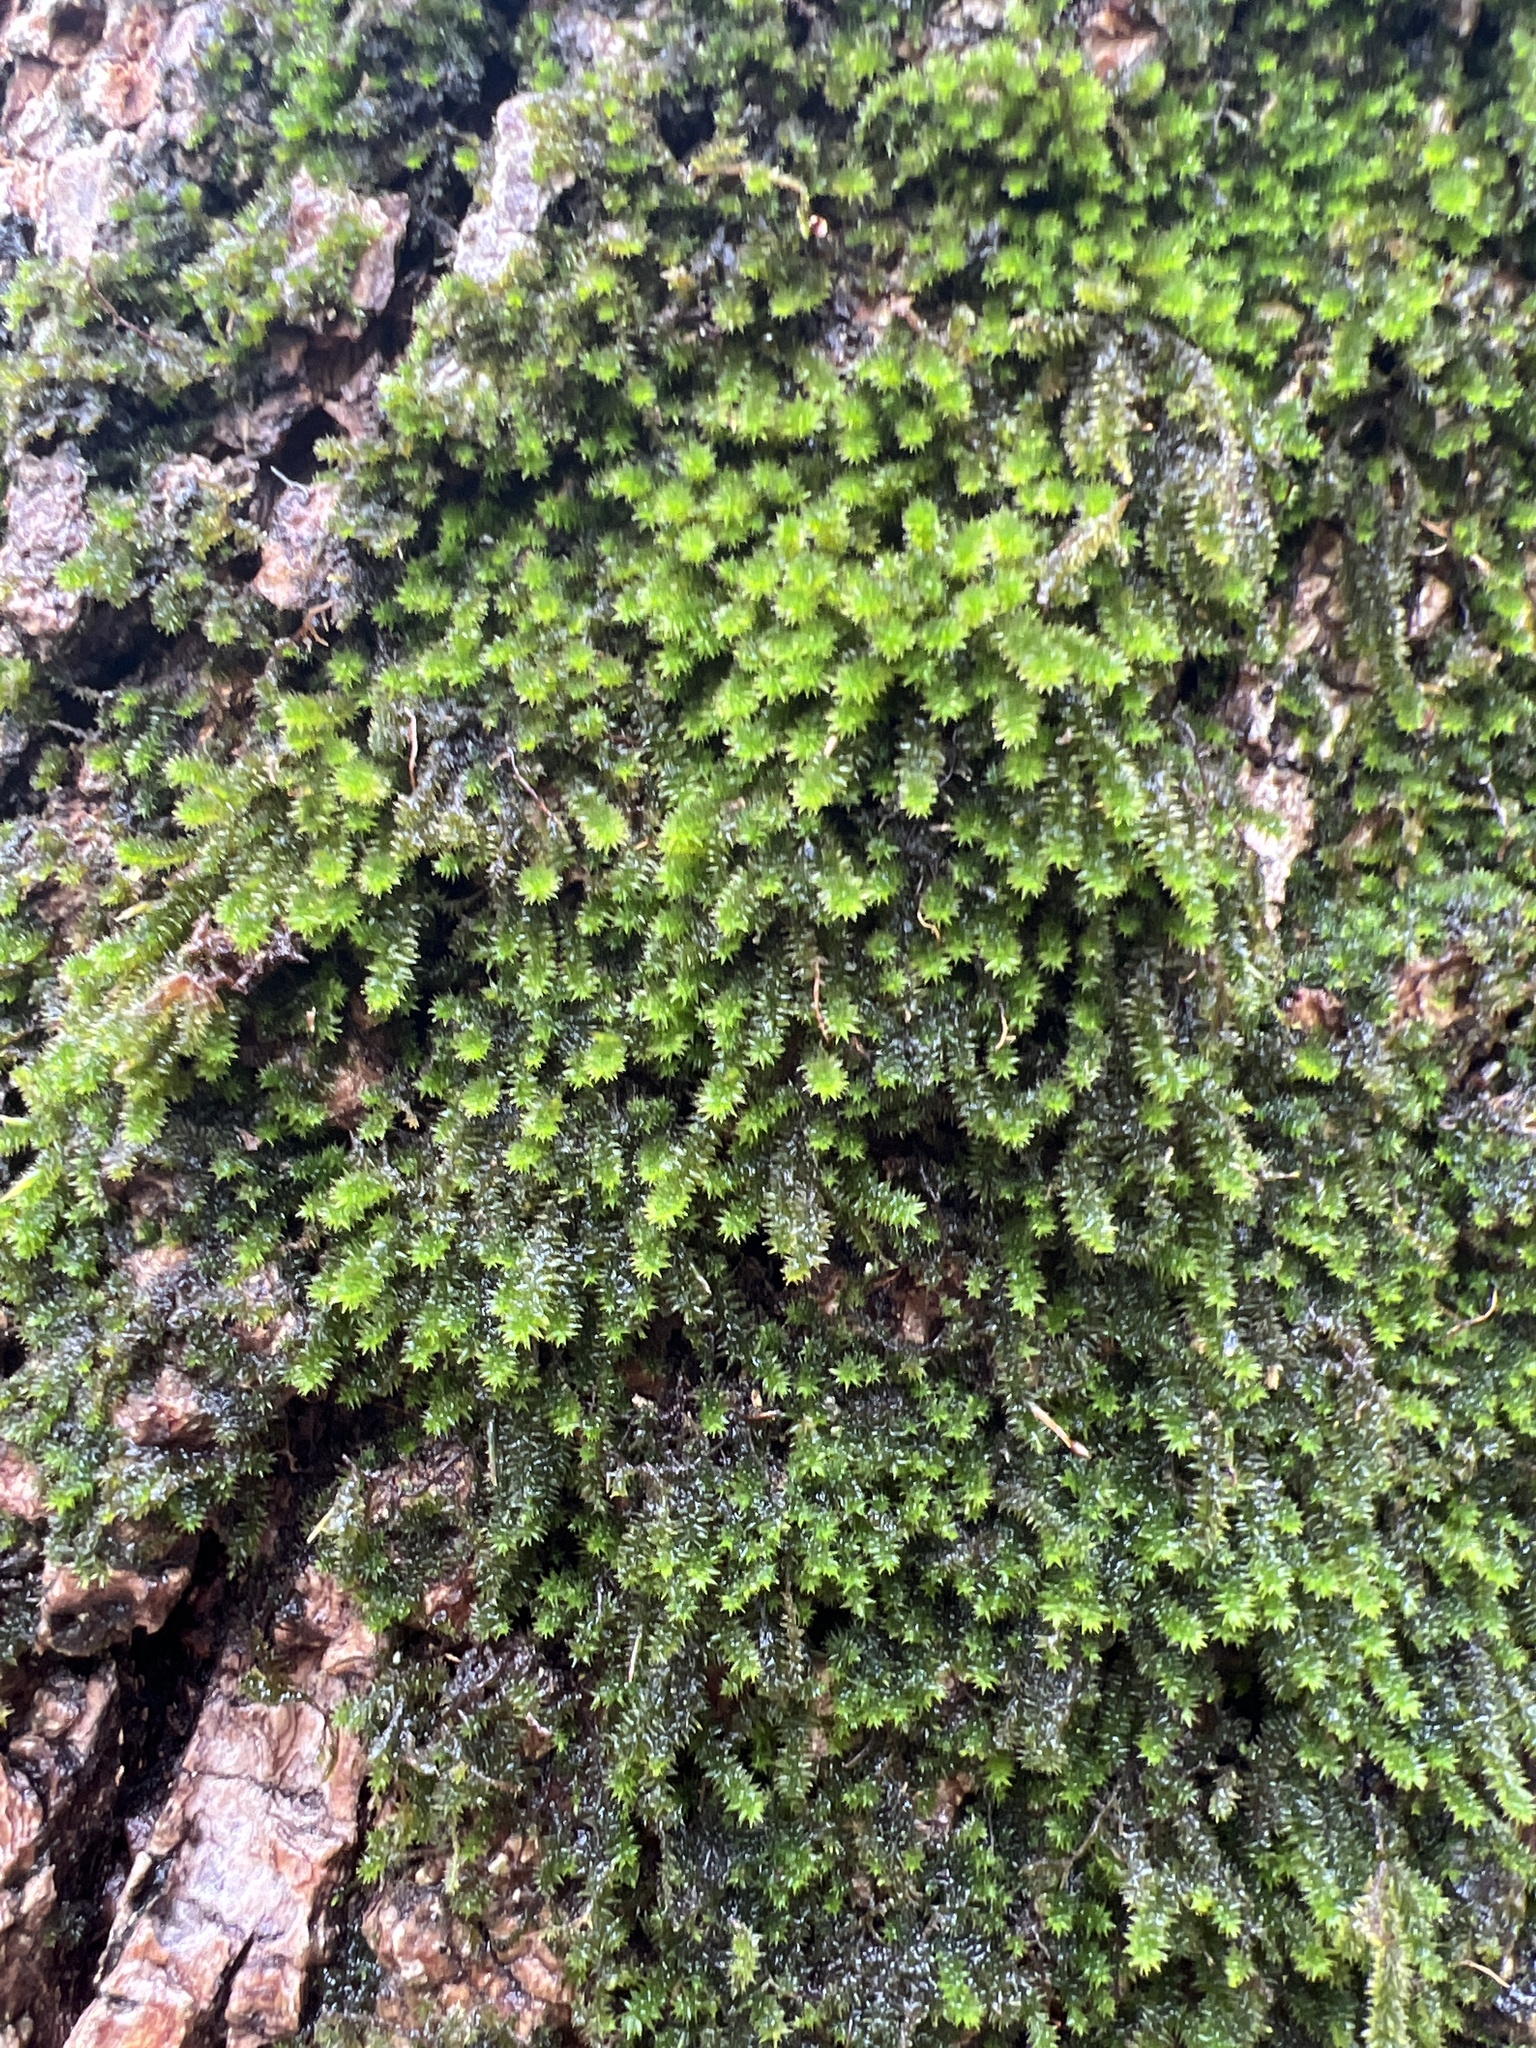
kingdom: Plantae
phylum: Bryophyta
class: Bryopsida
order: Hypnales
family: Leucodontaceae
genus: Leucodon
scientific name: Leucodon julaceus
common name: Smooth hook moss
